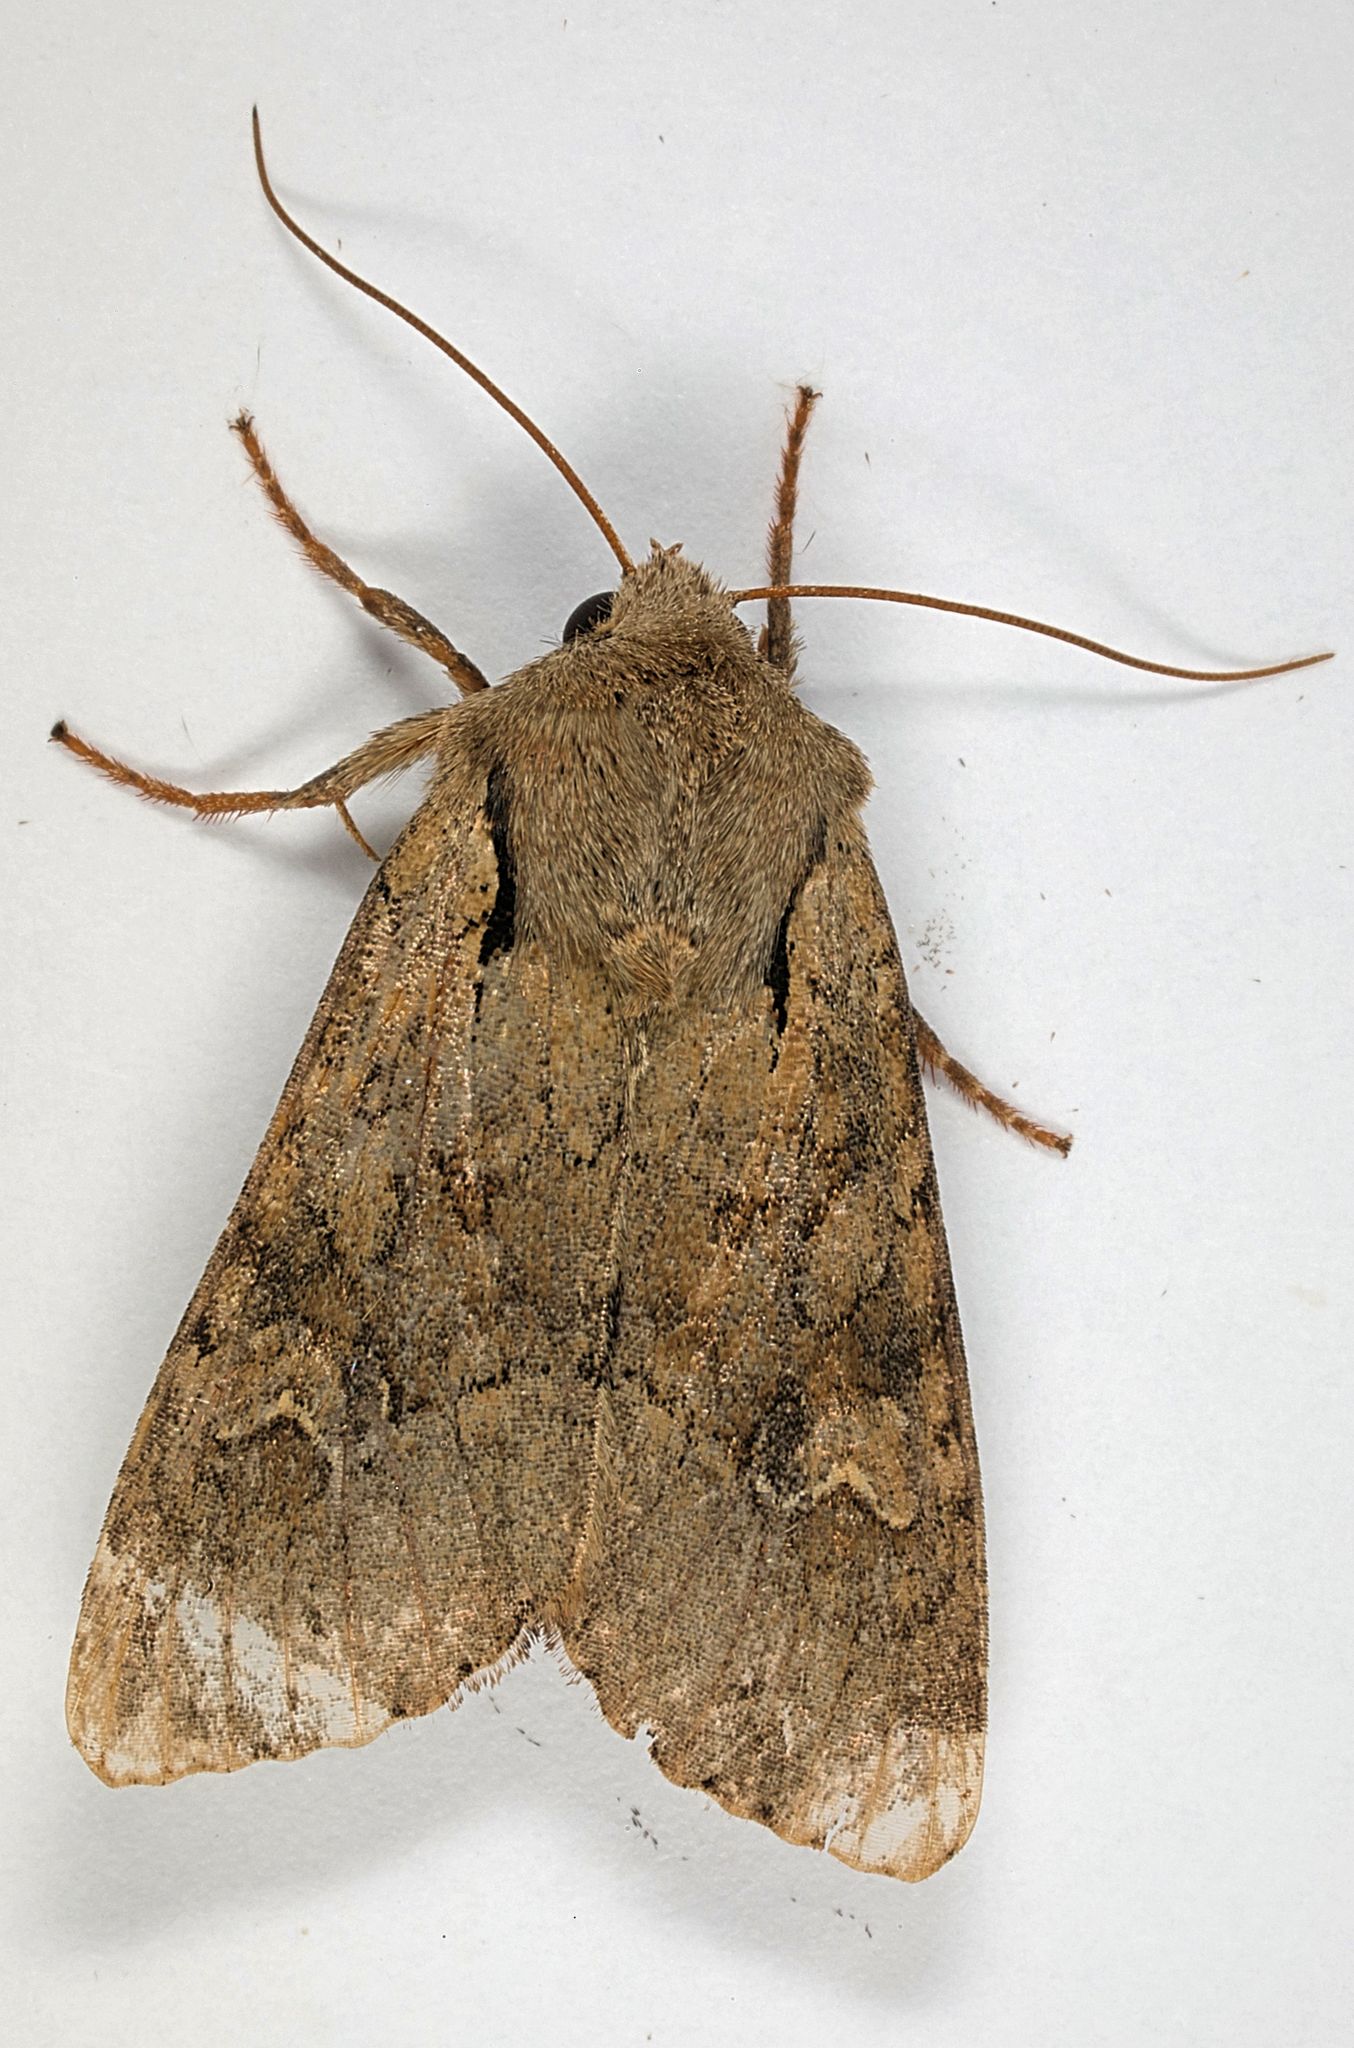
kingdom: Animalia
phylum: Arthropoda
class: Insecta
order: Lepidoptera
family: Noctuidae
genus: Apamea
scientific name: Apamea sordens
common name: Rustic shoulder-knot
